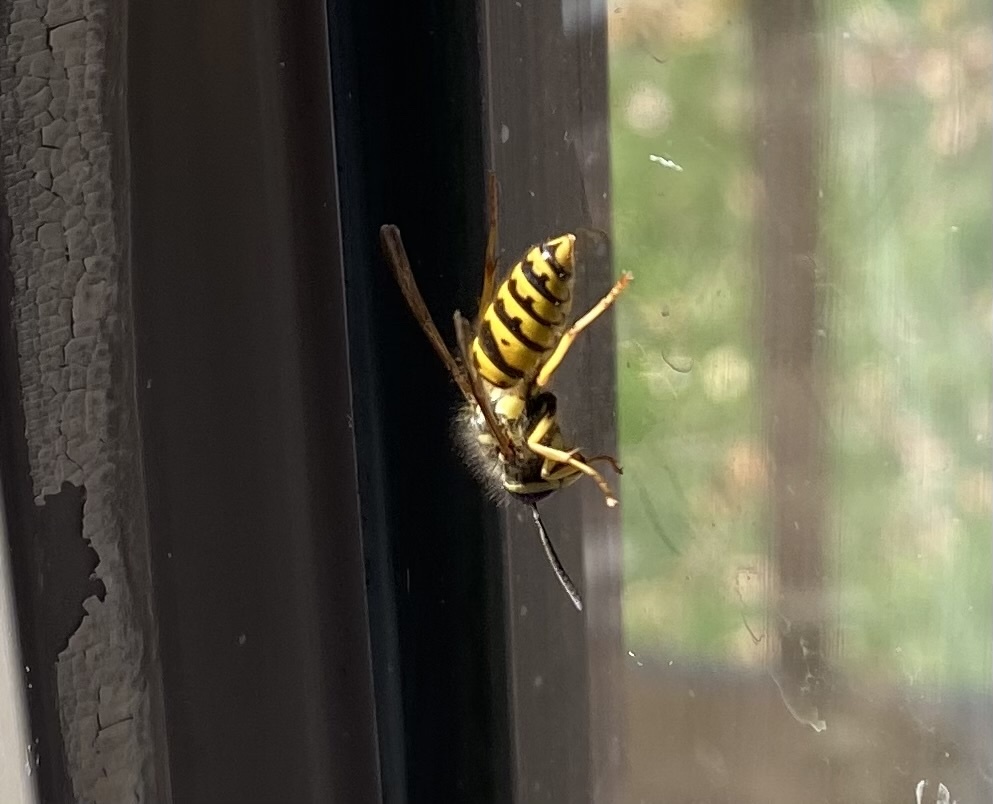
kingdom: Animalia
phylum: Arthropoda
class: Insecta
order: Hymenoptera
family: Vespidae
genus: Vespula
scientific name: Vespula
